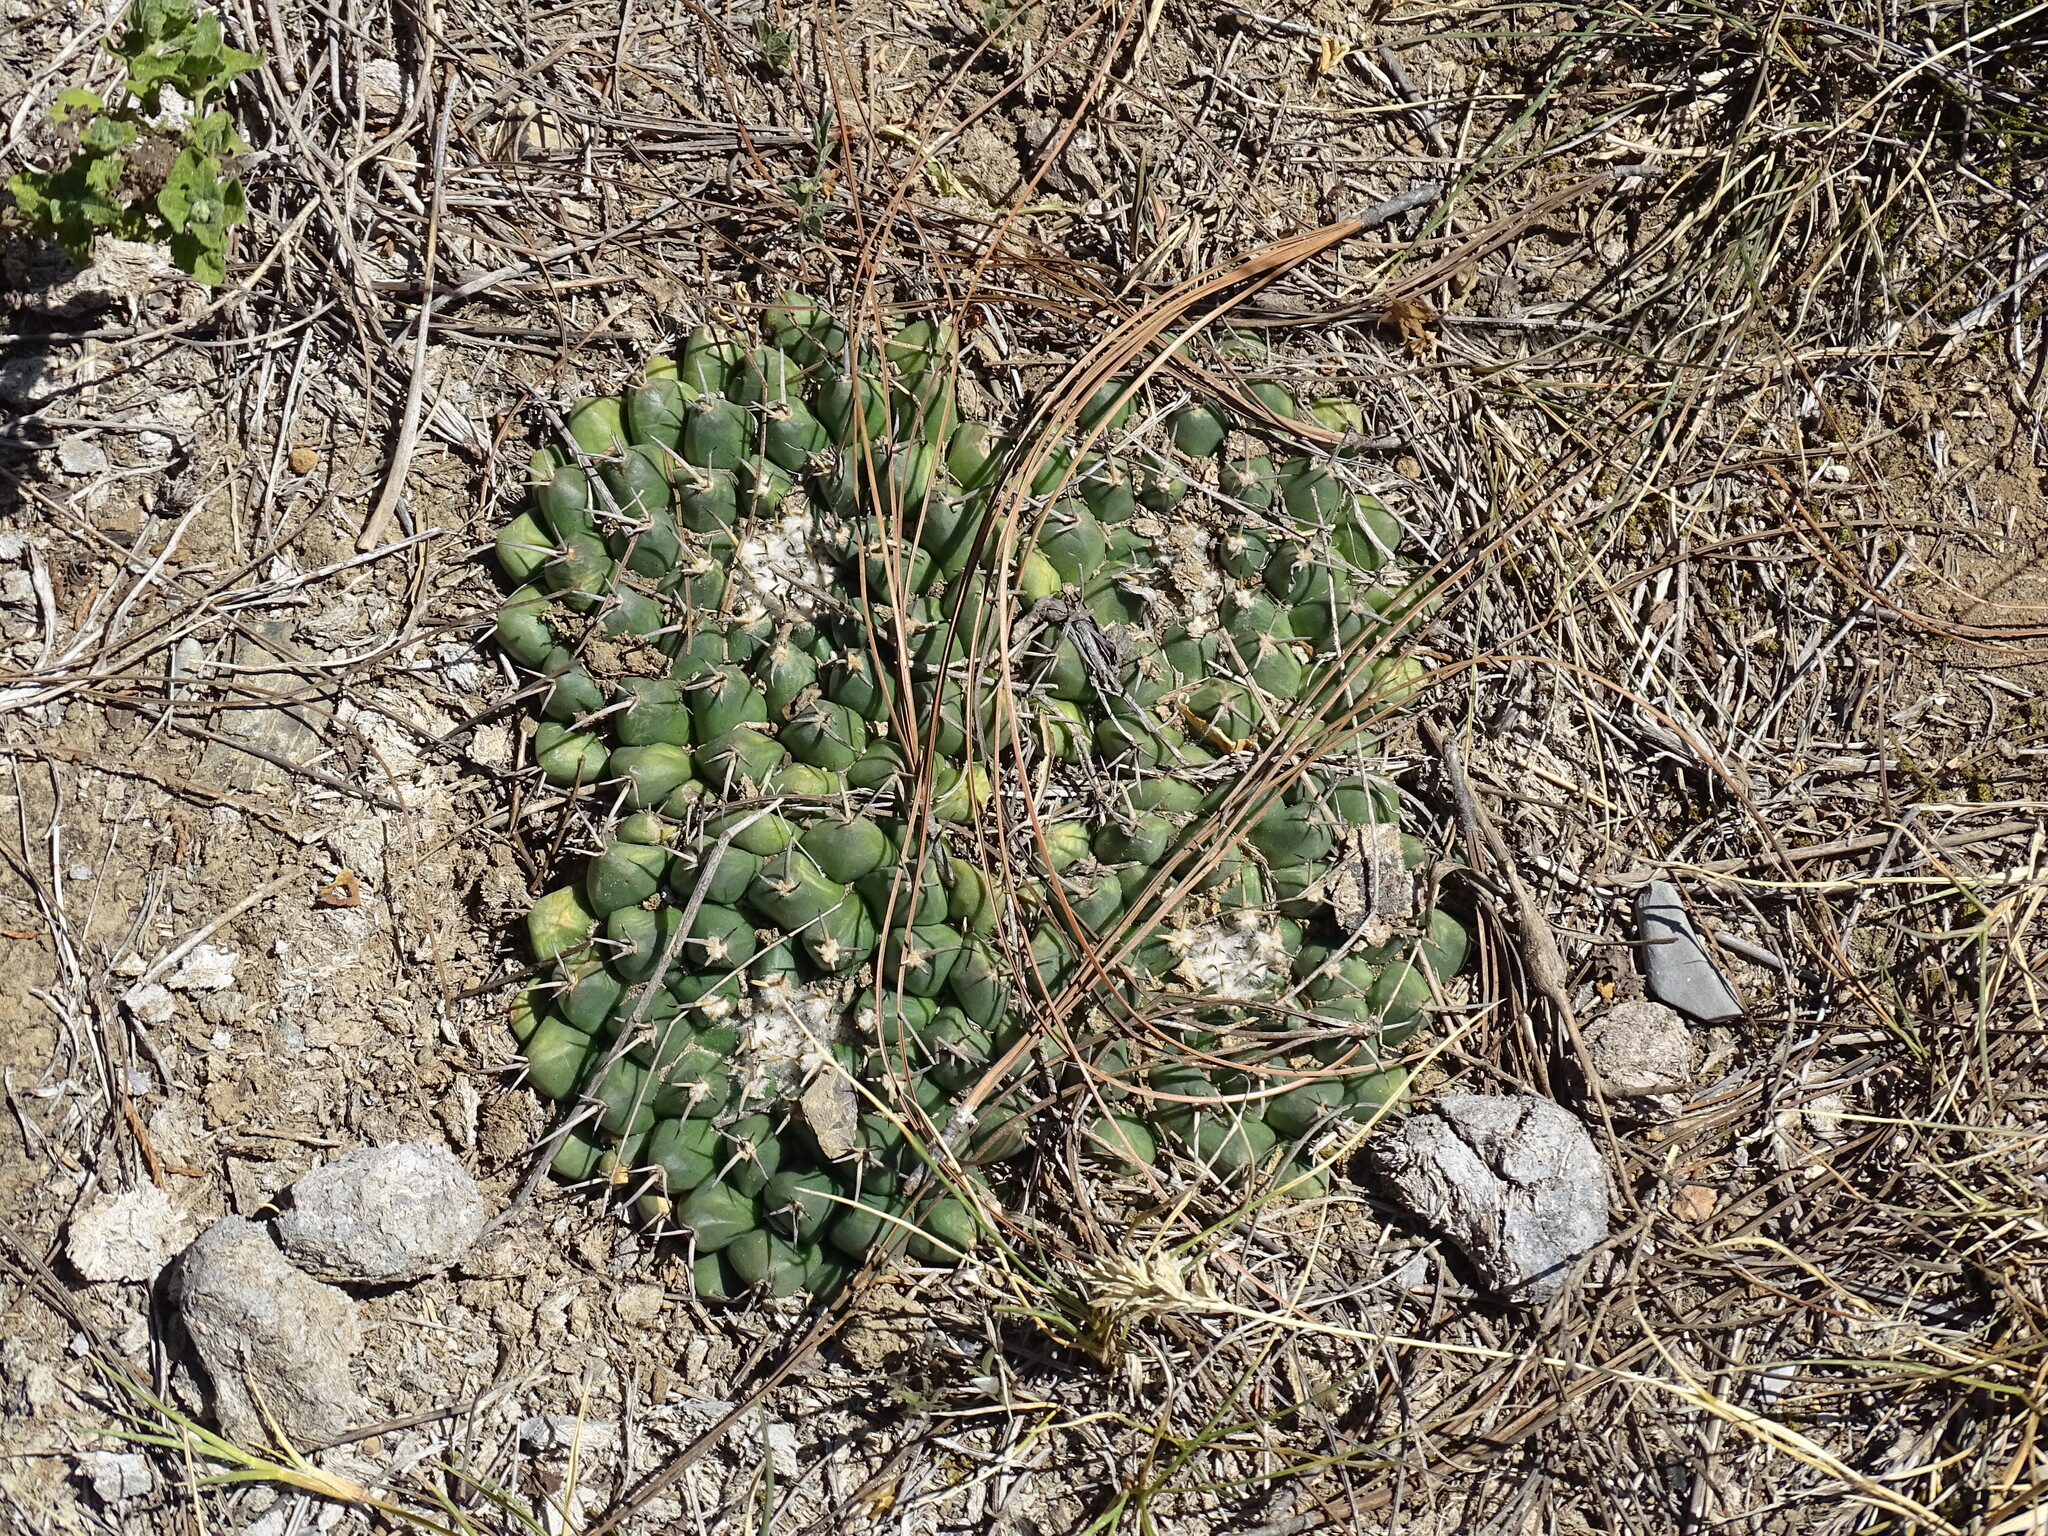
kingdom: Plantae
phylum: Tracheophyta
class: Magnoliopsida
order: Caryophyllales
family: Cactaceae
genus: Mammillaria
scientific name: Mammillaria magnimamma
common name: Mexican pincushion
